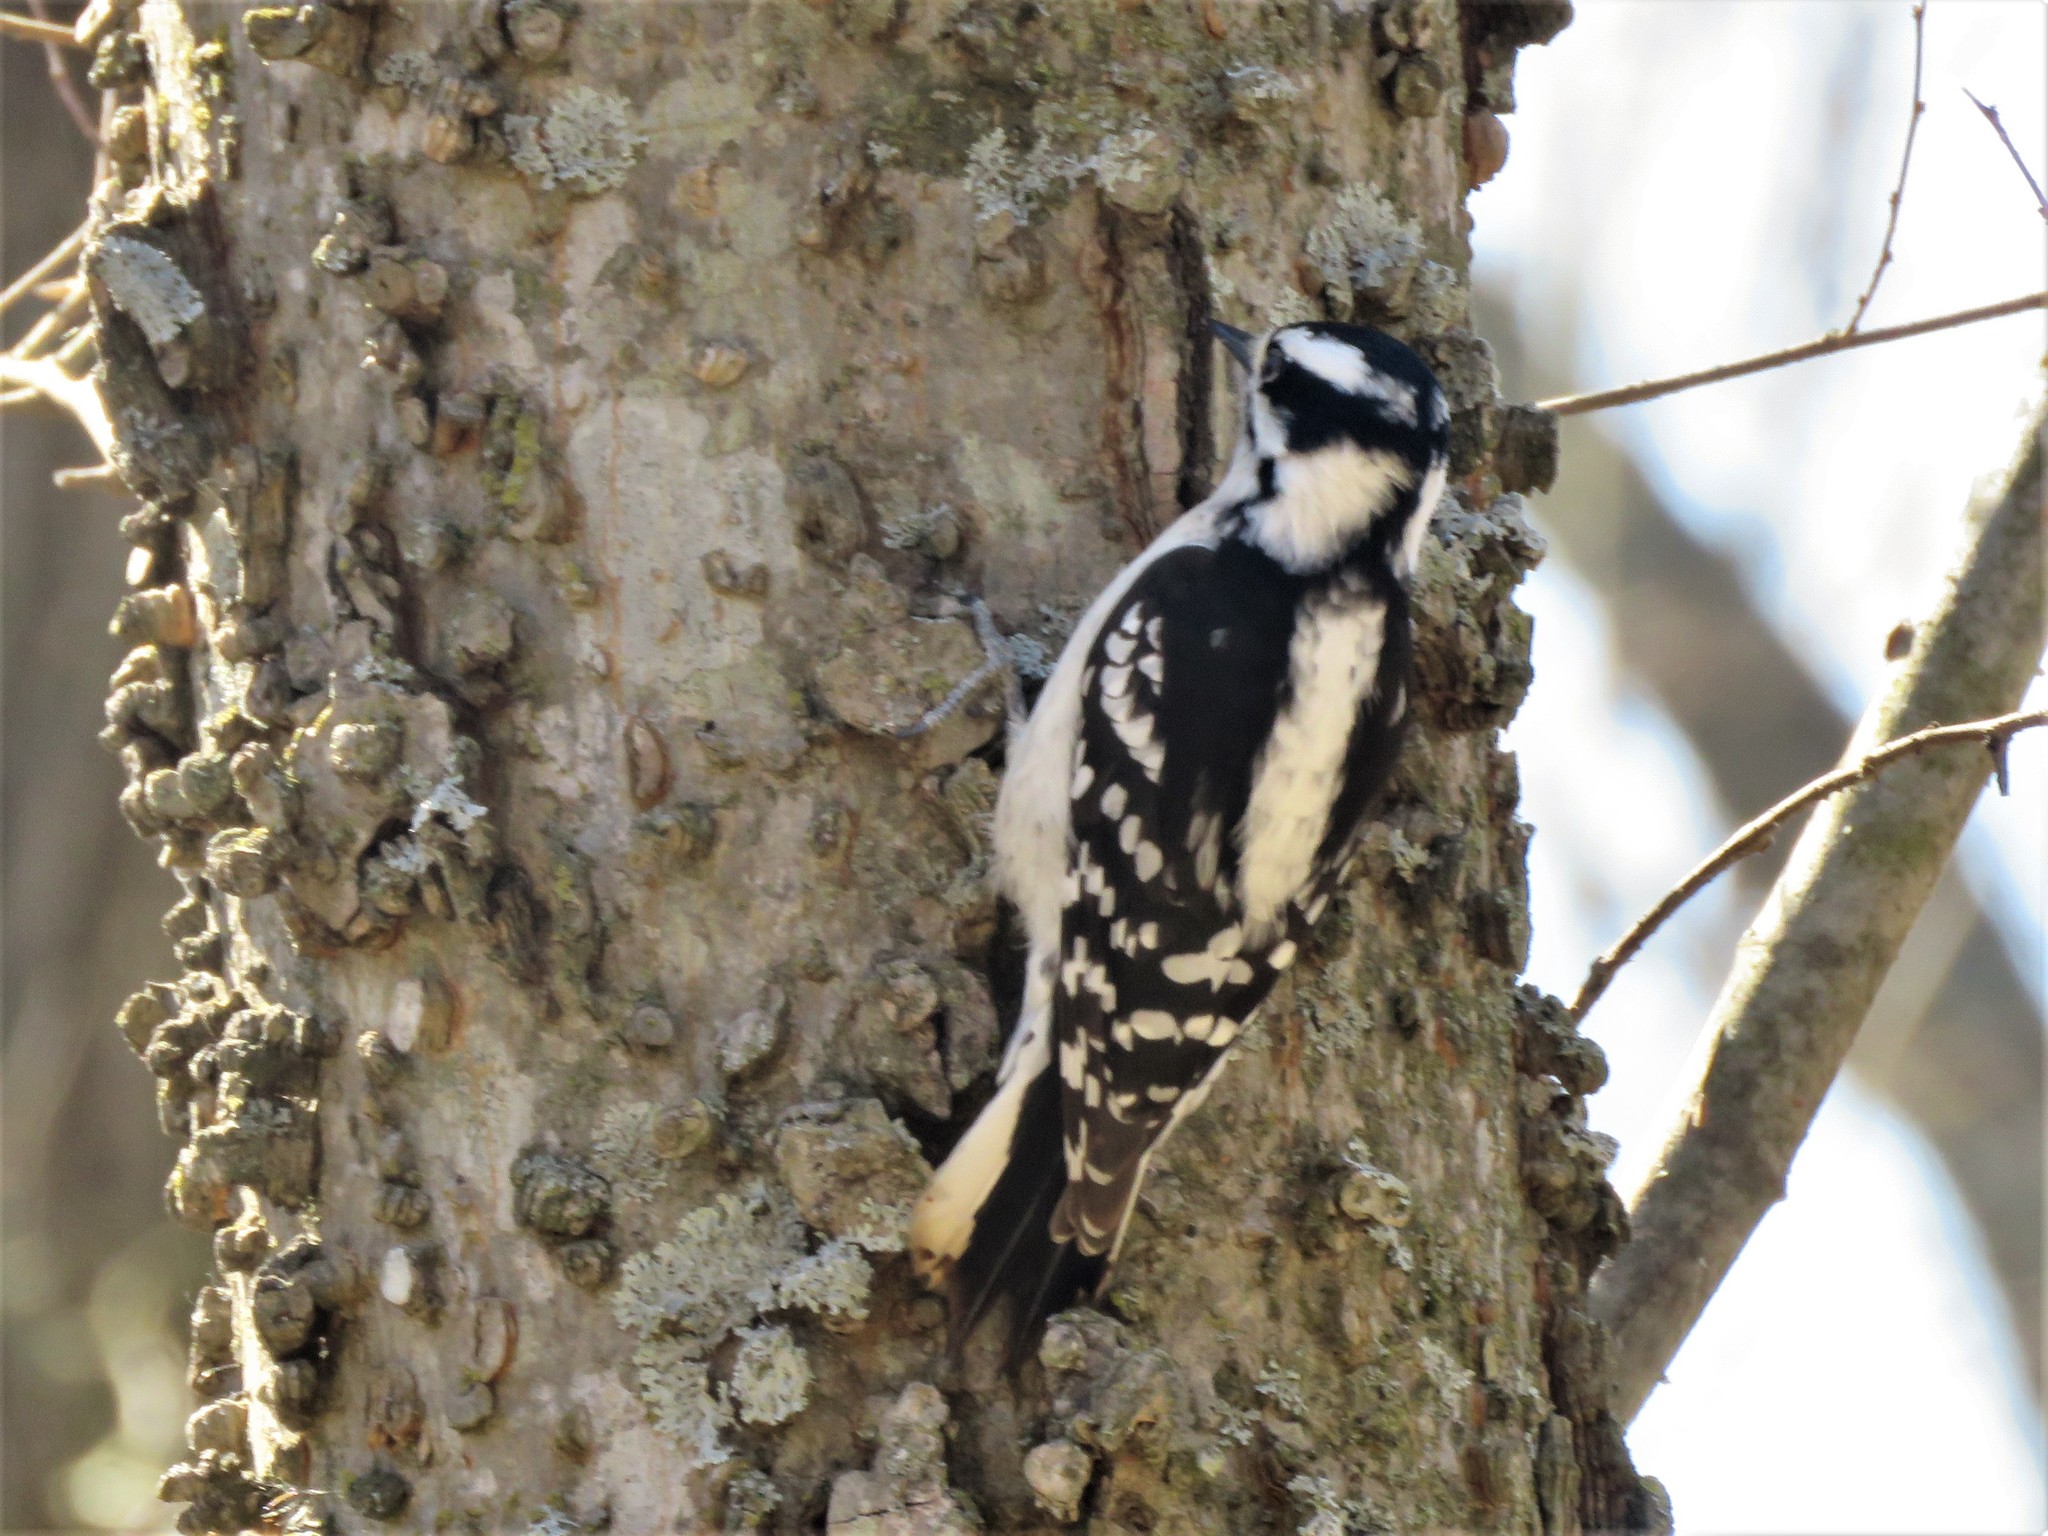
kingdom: Animalia
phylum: Chordata
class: Aves
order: Piciformes
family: Picidae
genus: Dryobates
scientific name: Dryobates pubescens
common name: Downy woodpecker
